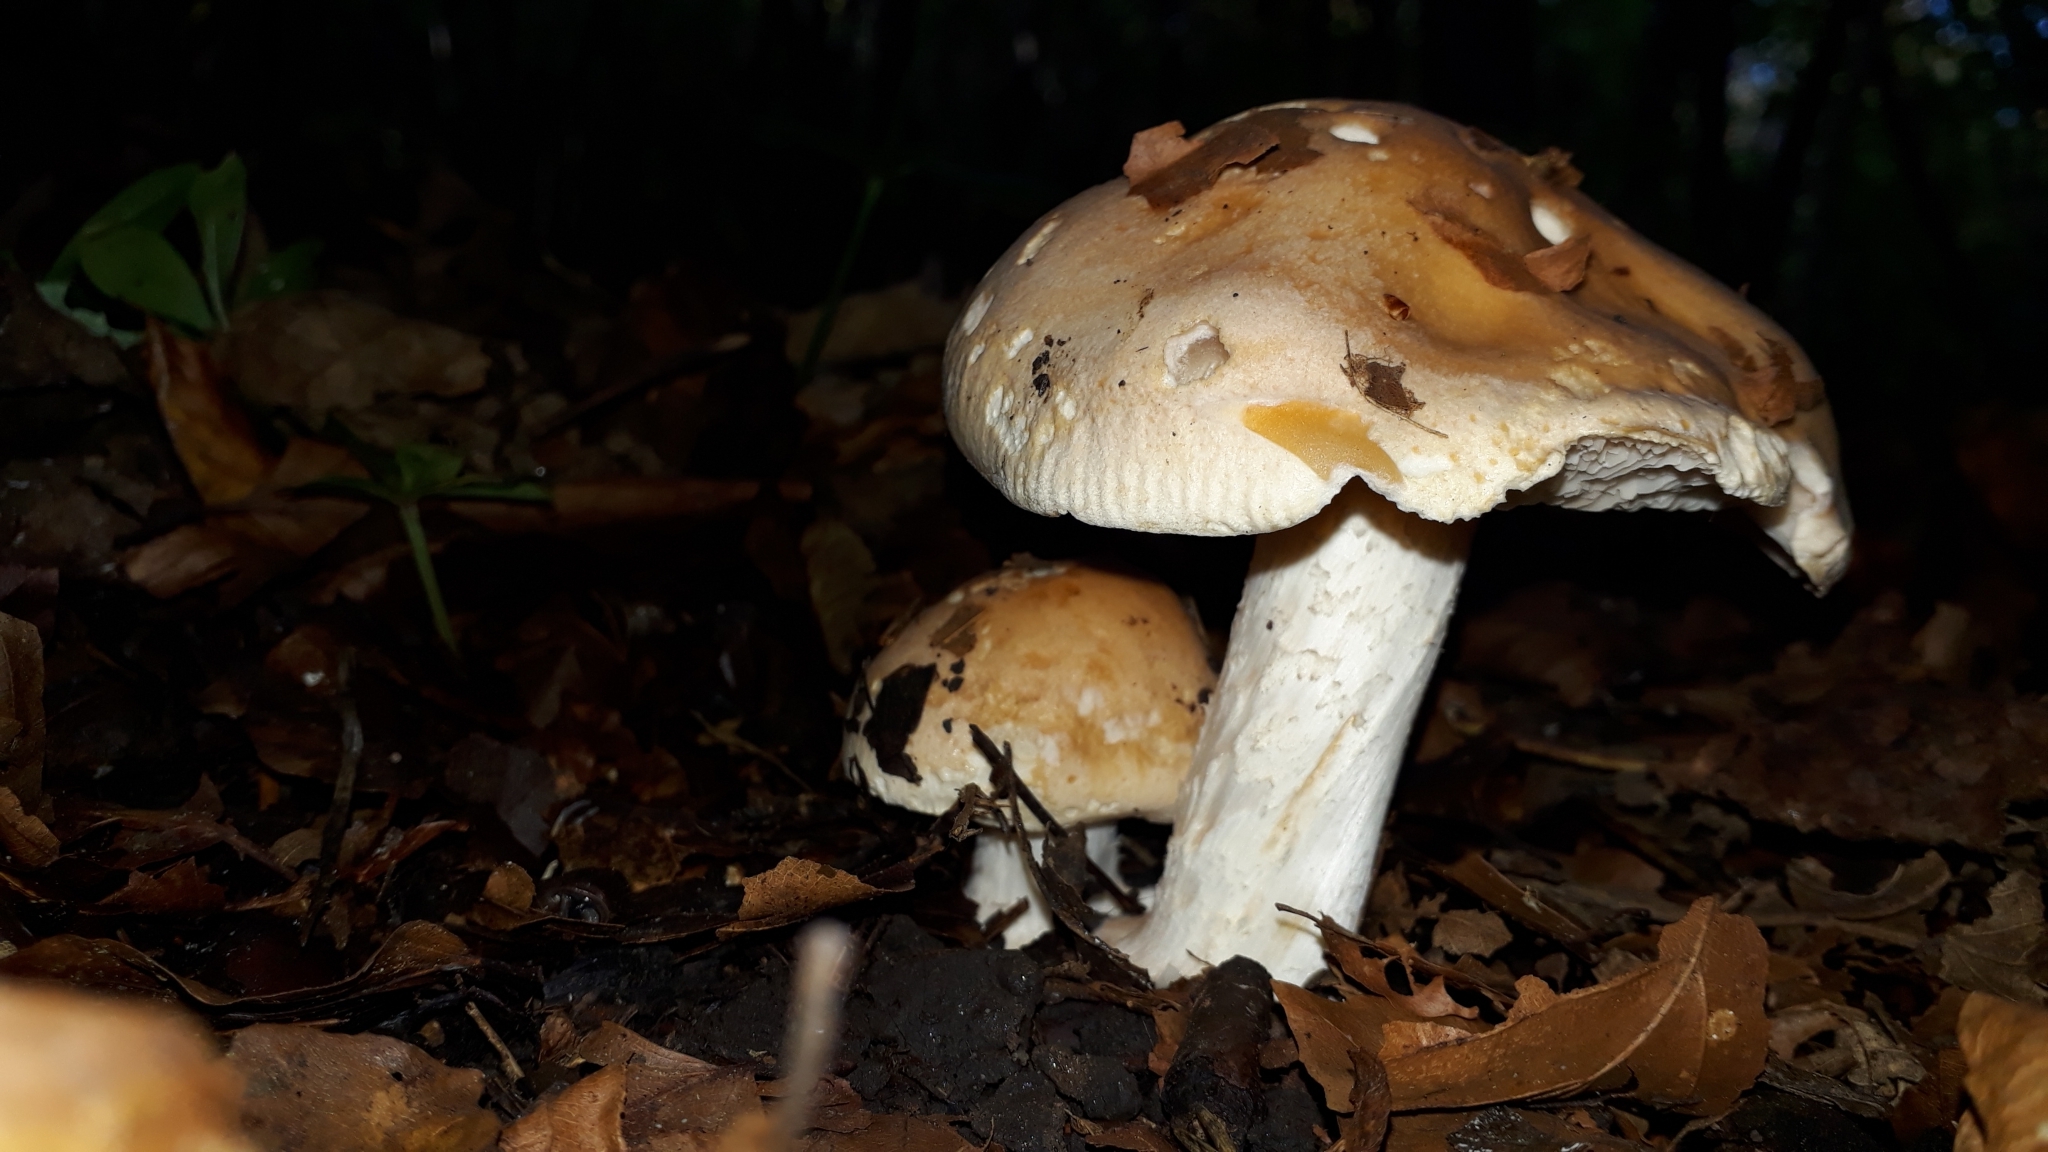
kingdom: Fungi
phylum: Basidiomycota
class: Agaricomycetes
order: Agaricales
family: Hymenogastraceae
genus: Hebeloma
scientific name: Hebeloma sinapizans
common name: Bitter poisonpie
